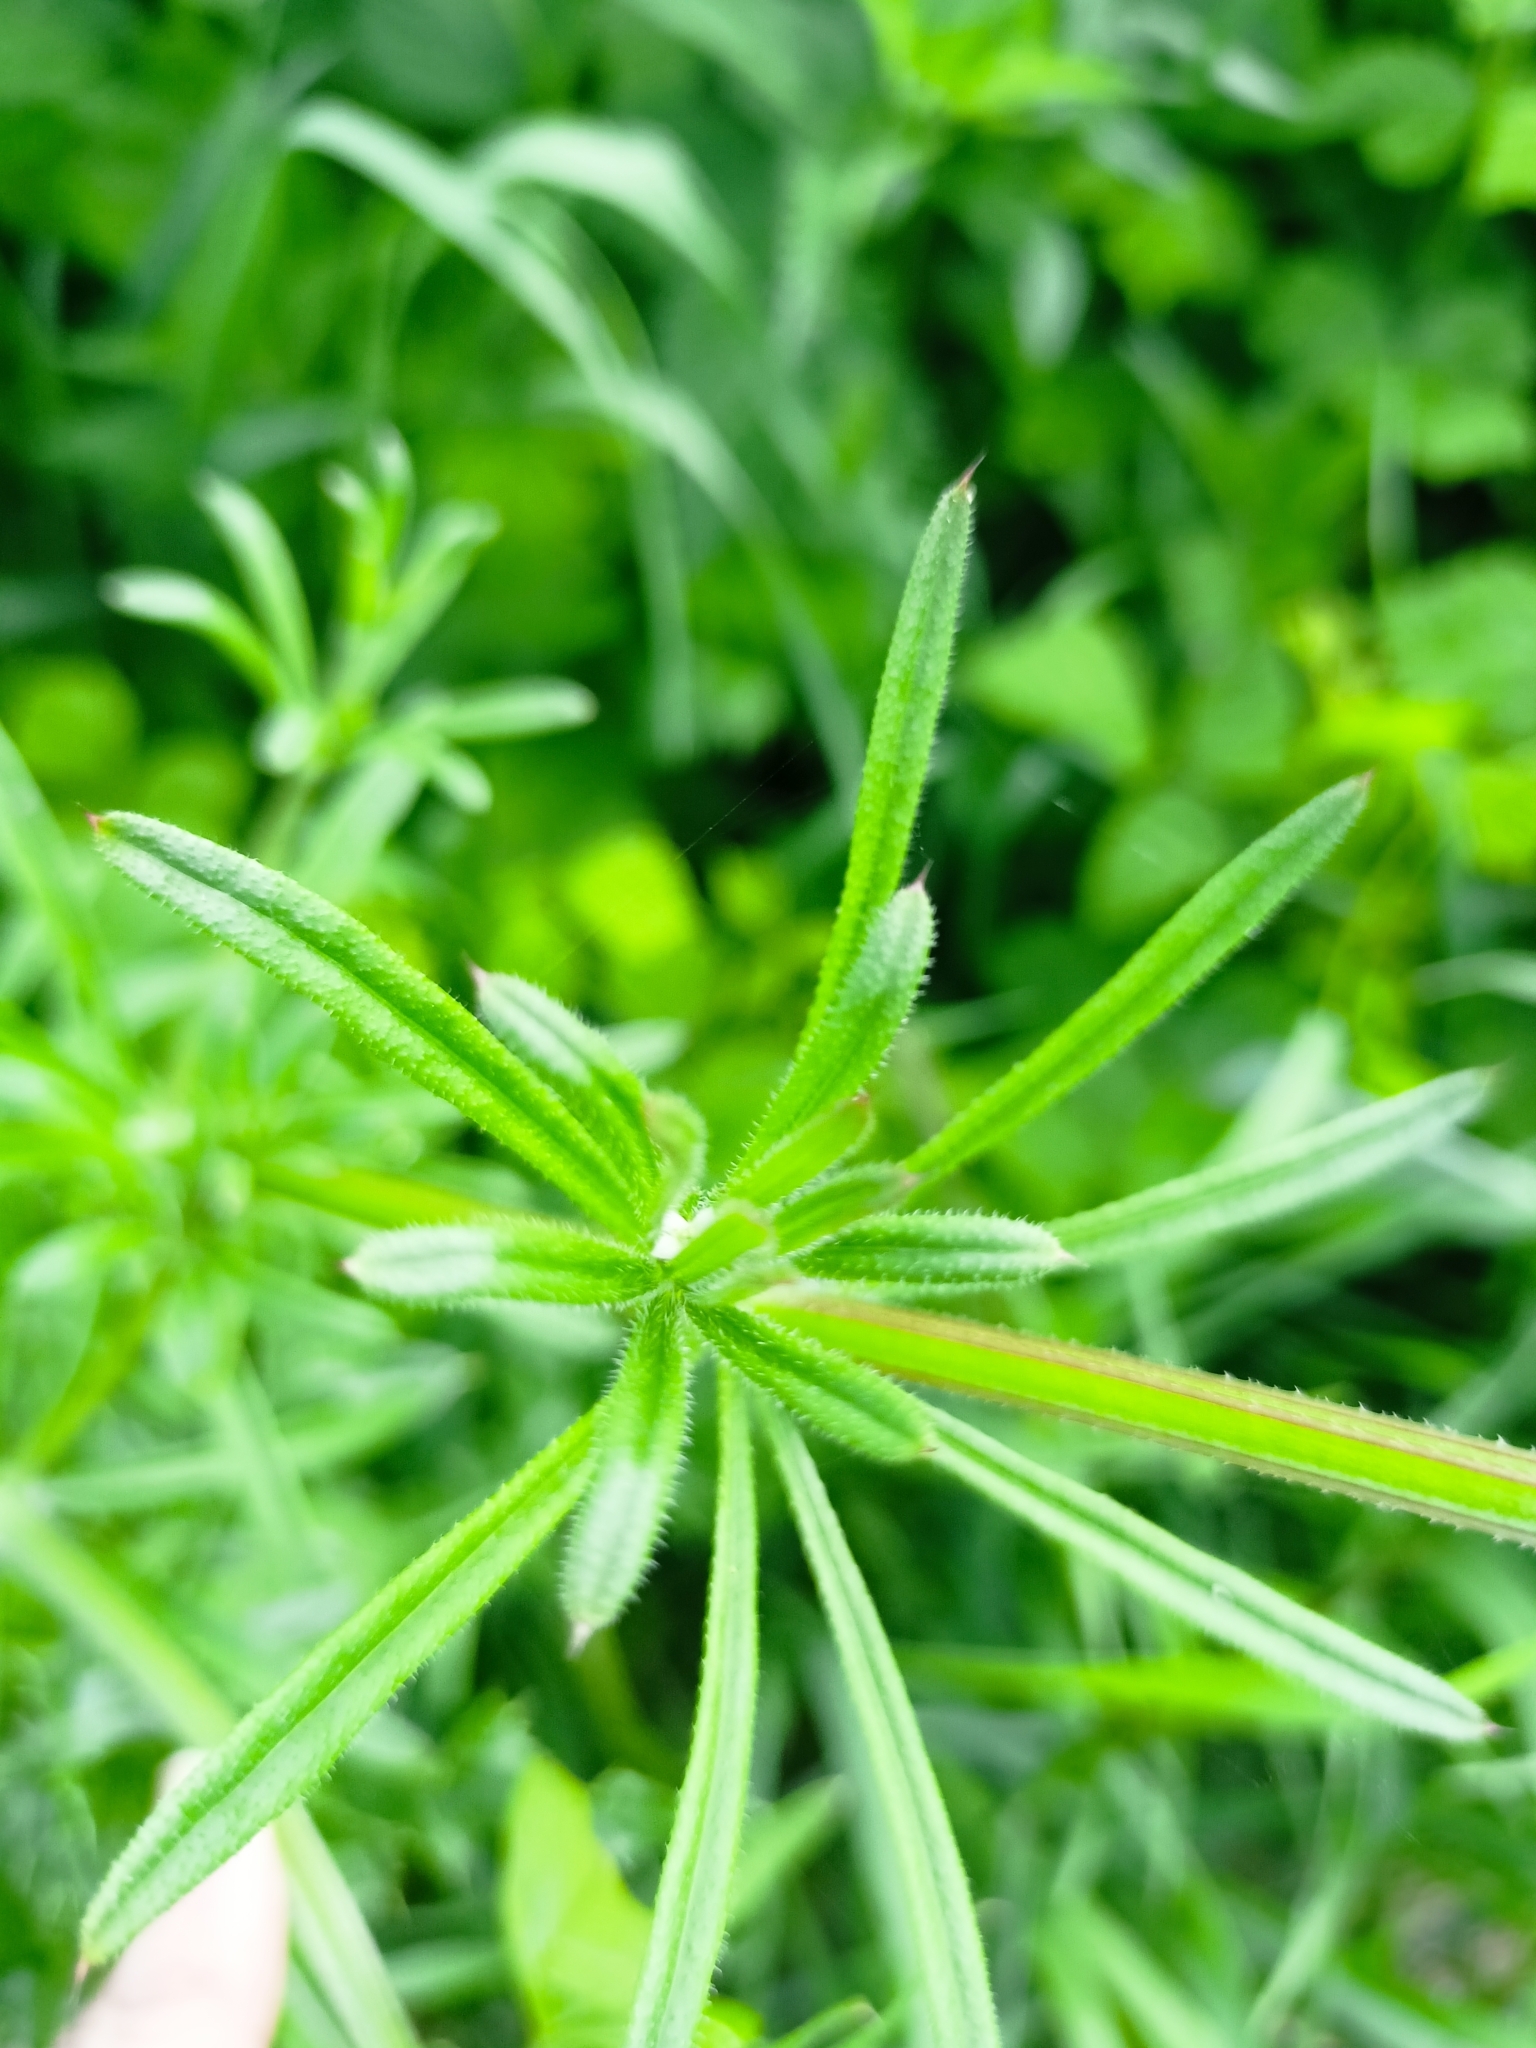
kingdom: Plantae
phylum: Tracheophyta
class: Magnoliopsida
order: Gentianales
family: Rubiaceae
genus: Galium
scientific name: Galium aparine
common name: Cleavers
